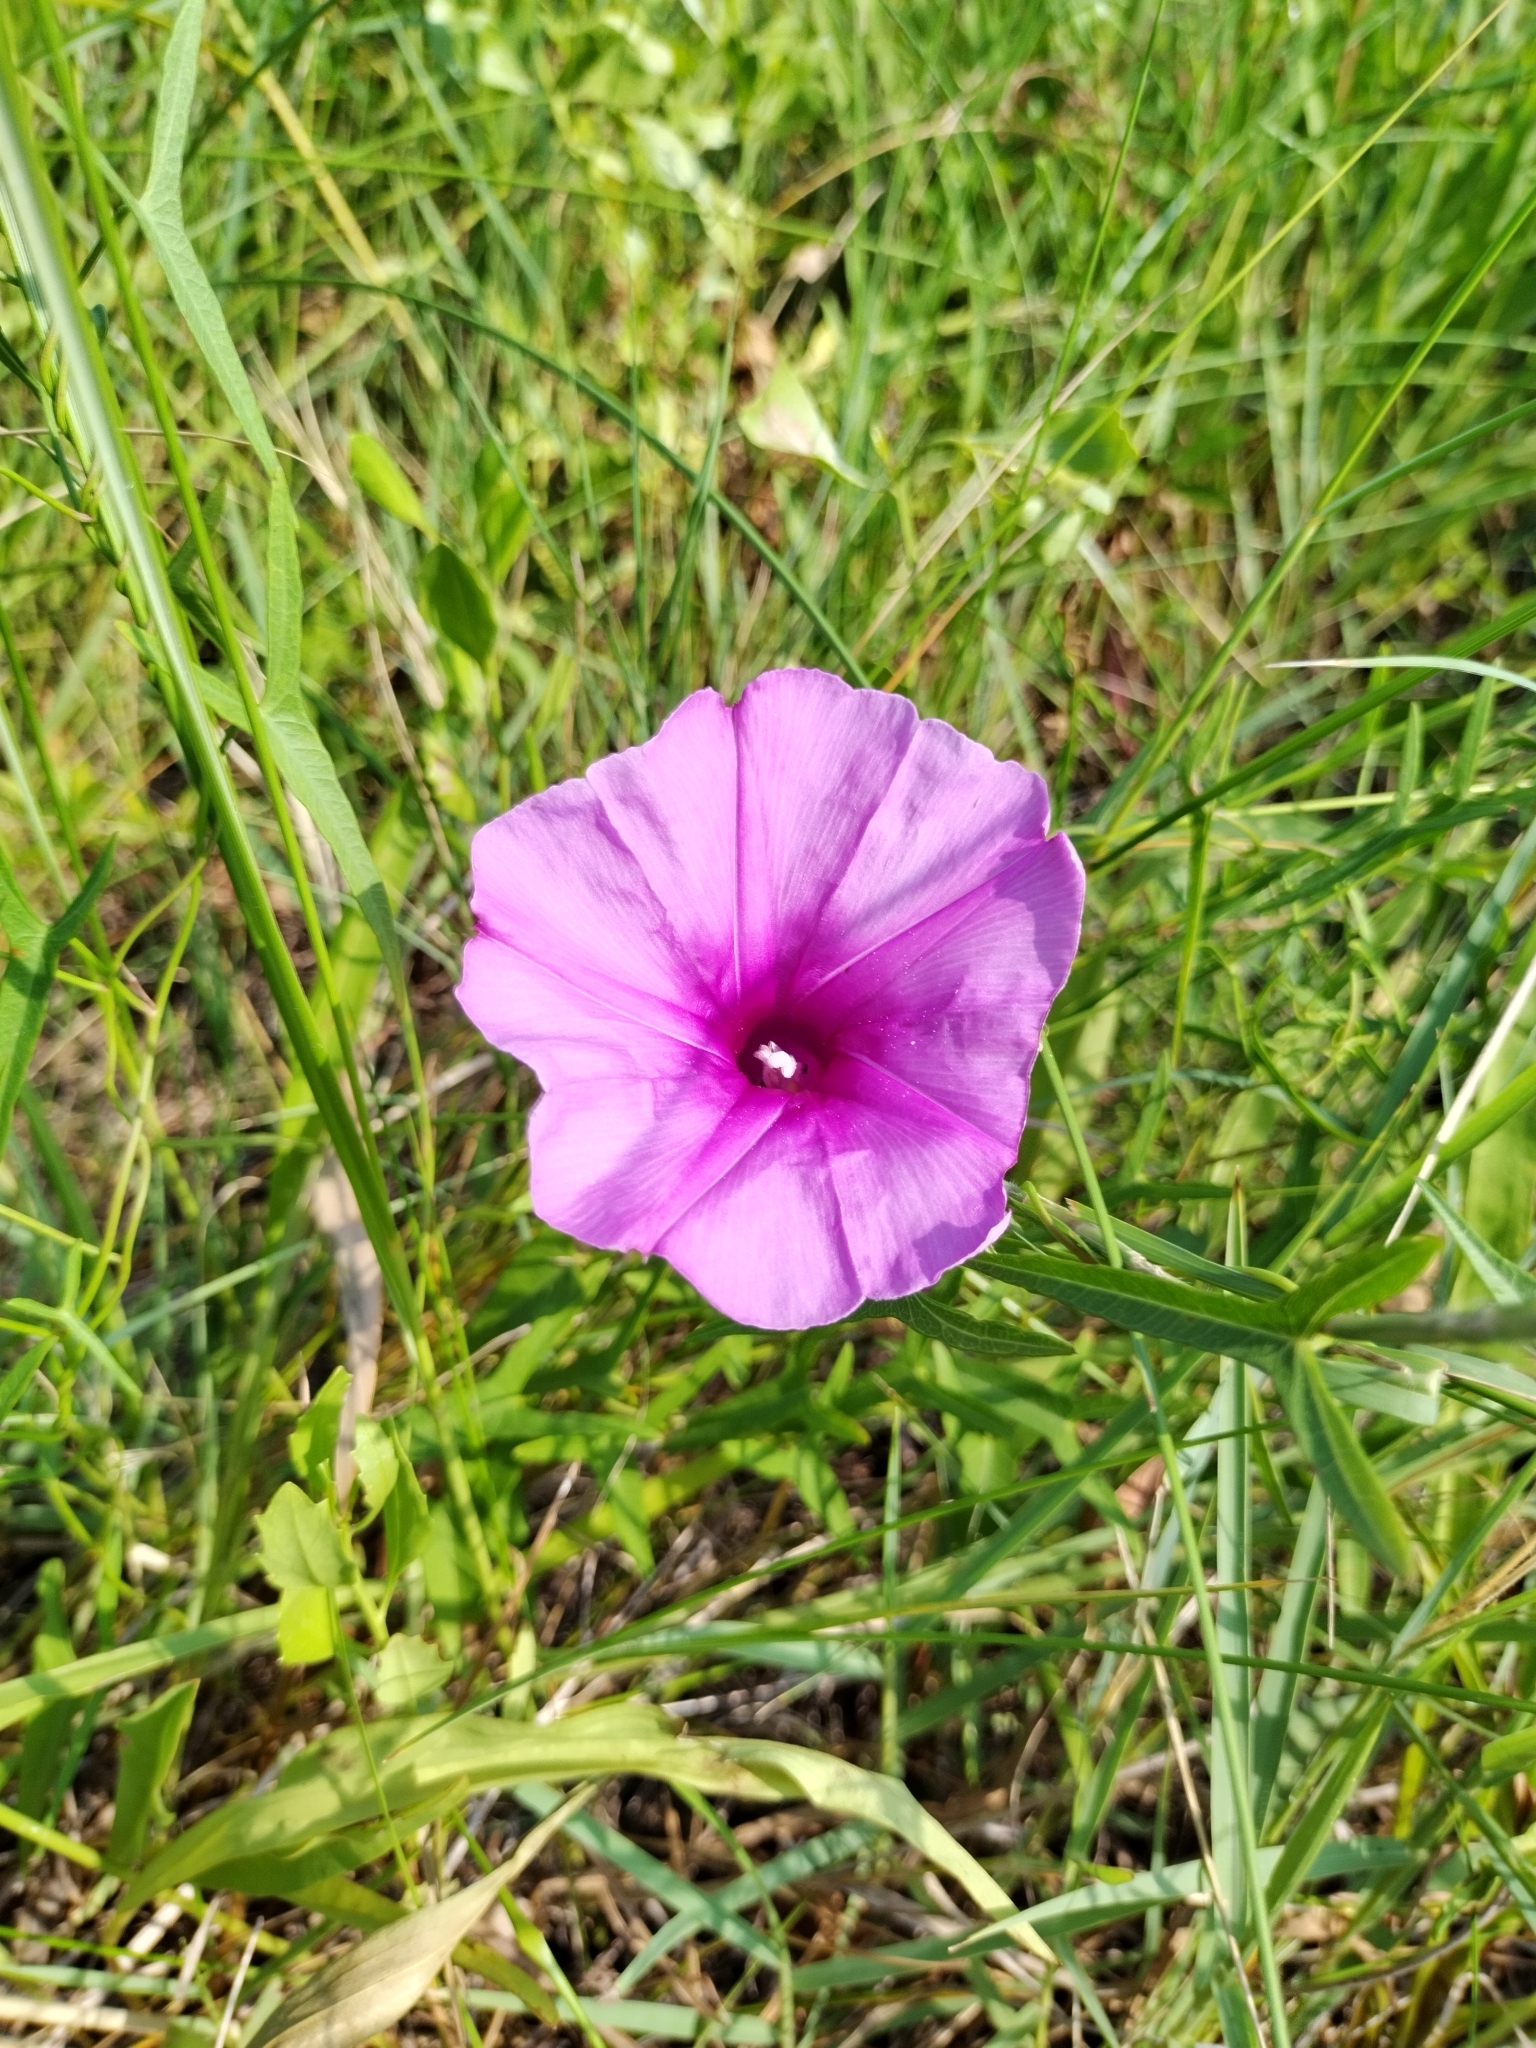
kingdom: Plantae
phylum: Tracheophyta
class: Magnoliopsida
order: Solanales
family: Convolvulaceae
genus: Ipomoea
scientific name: Ipomoea sagittata
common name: Saltmarsh morning glory
